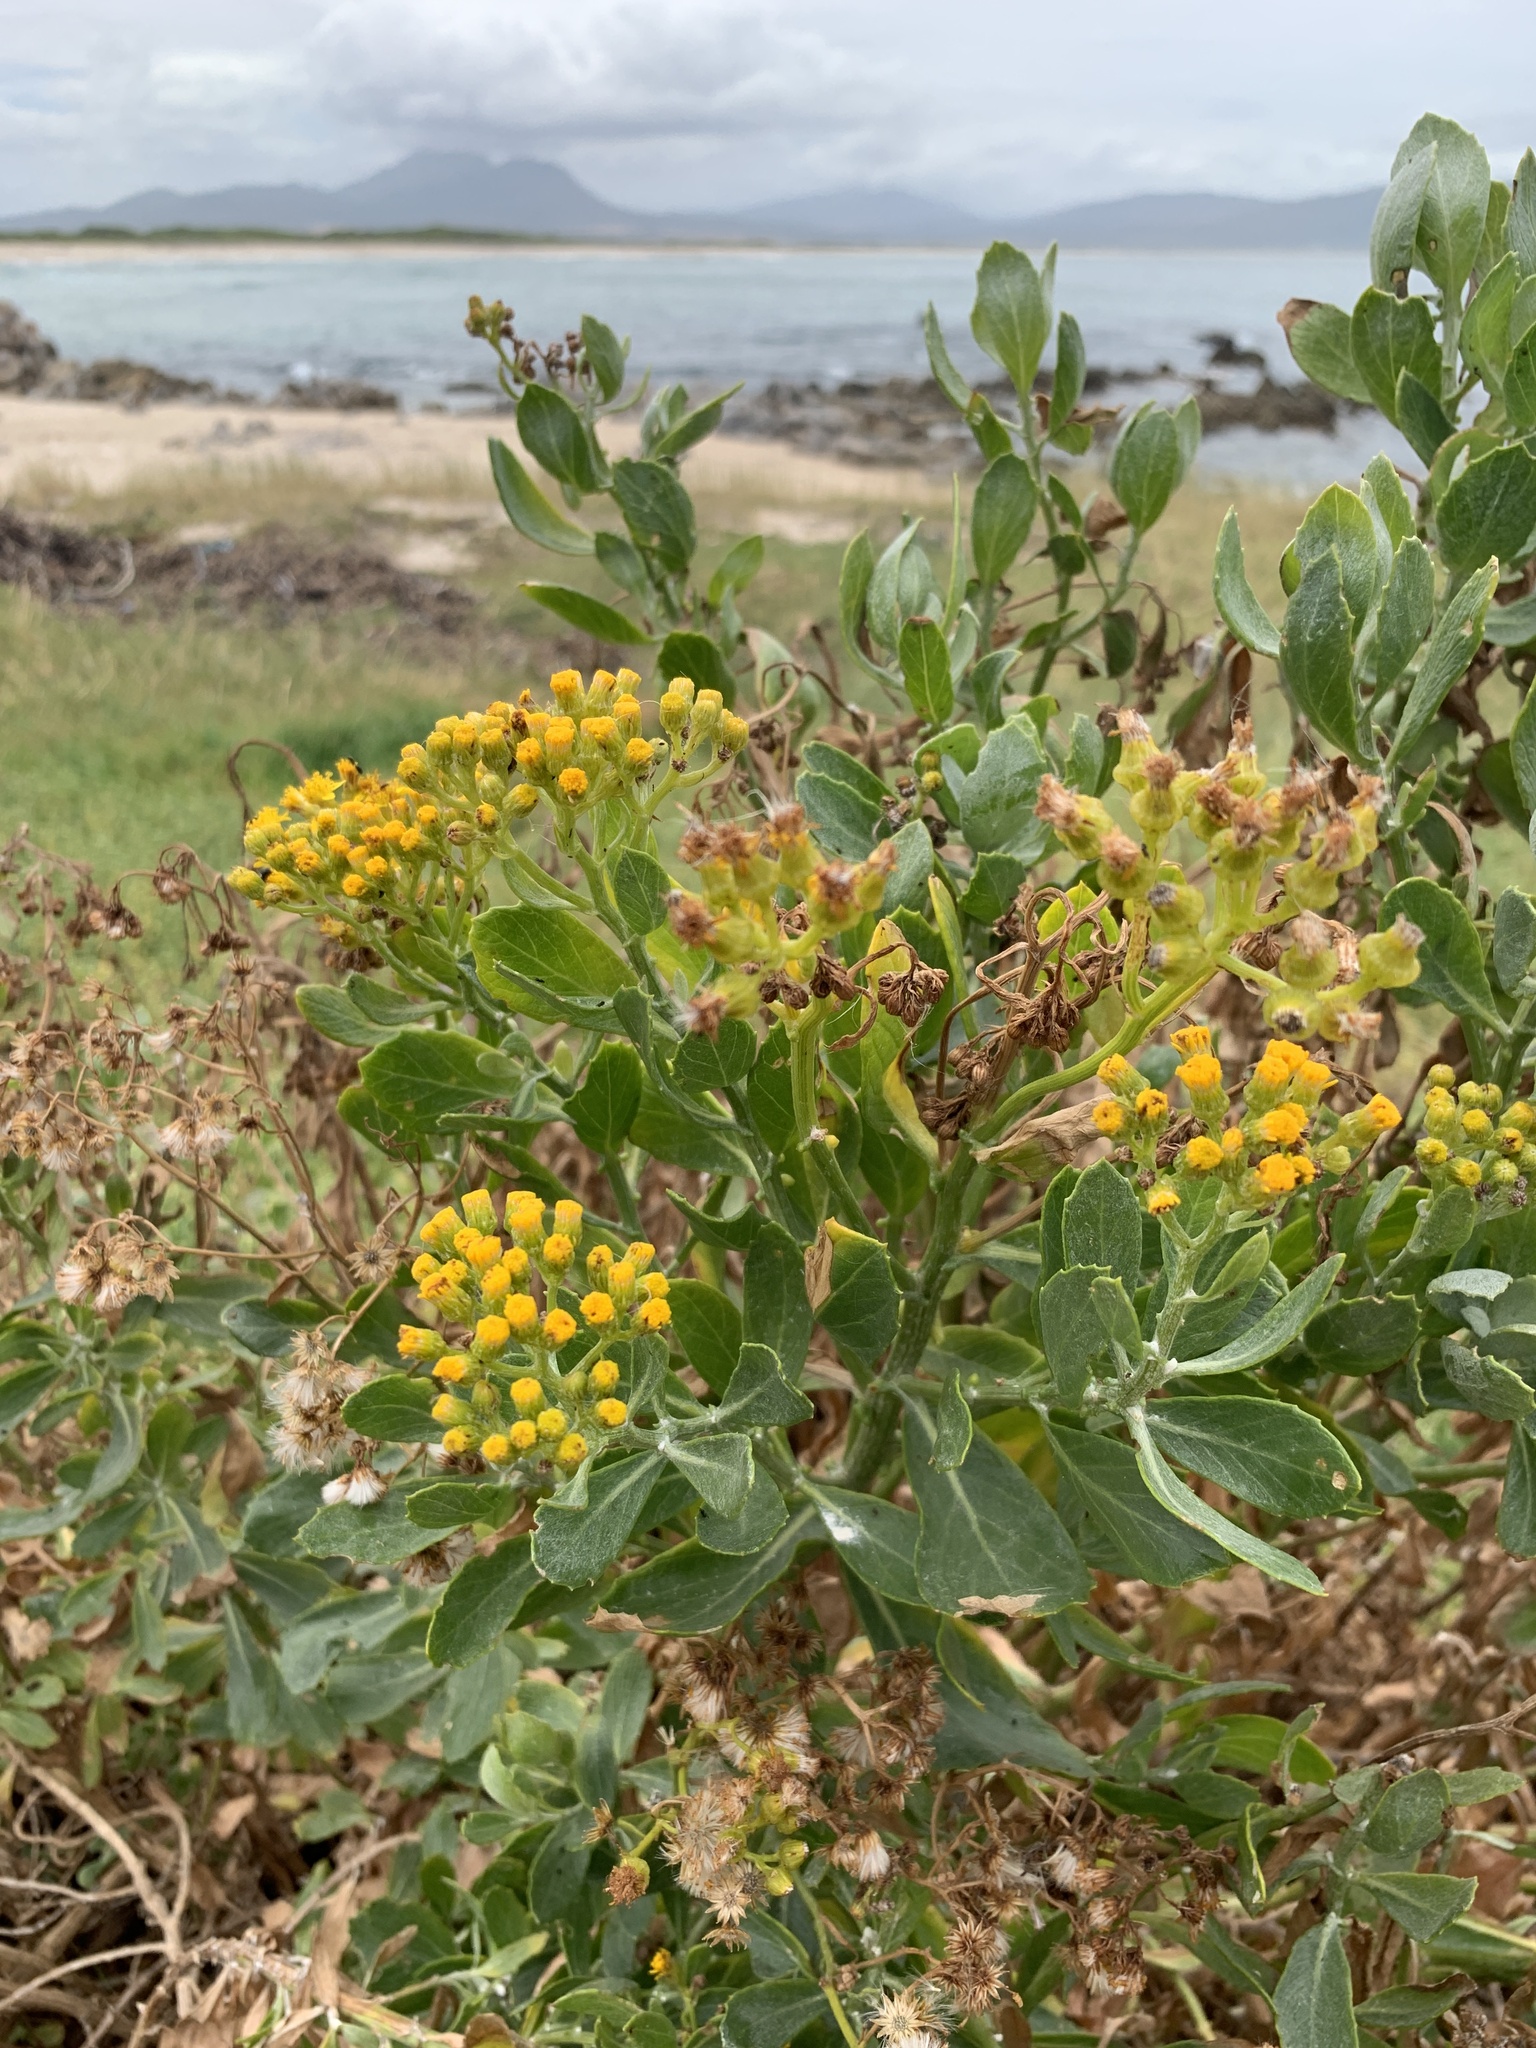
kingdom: Plantae
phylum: Tracheophyta
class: Magnoliopsida
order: Asterales
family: Asteraceae
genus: Senecio
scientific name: Senecio halimifolius
